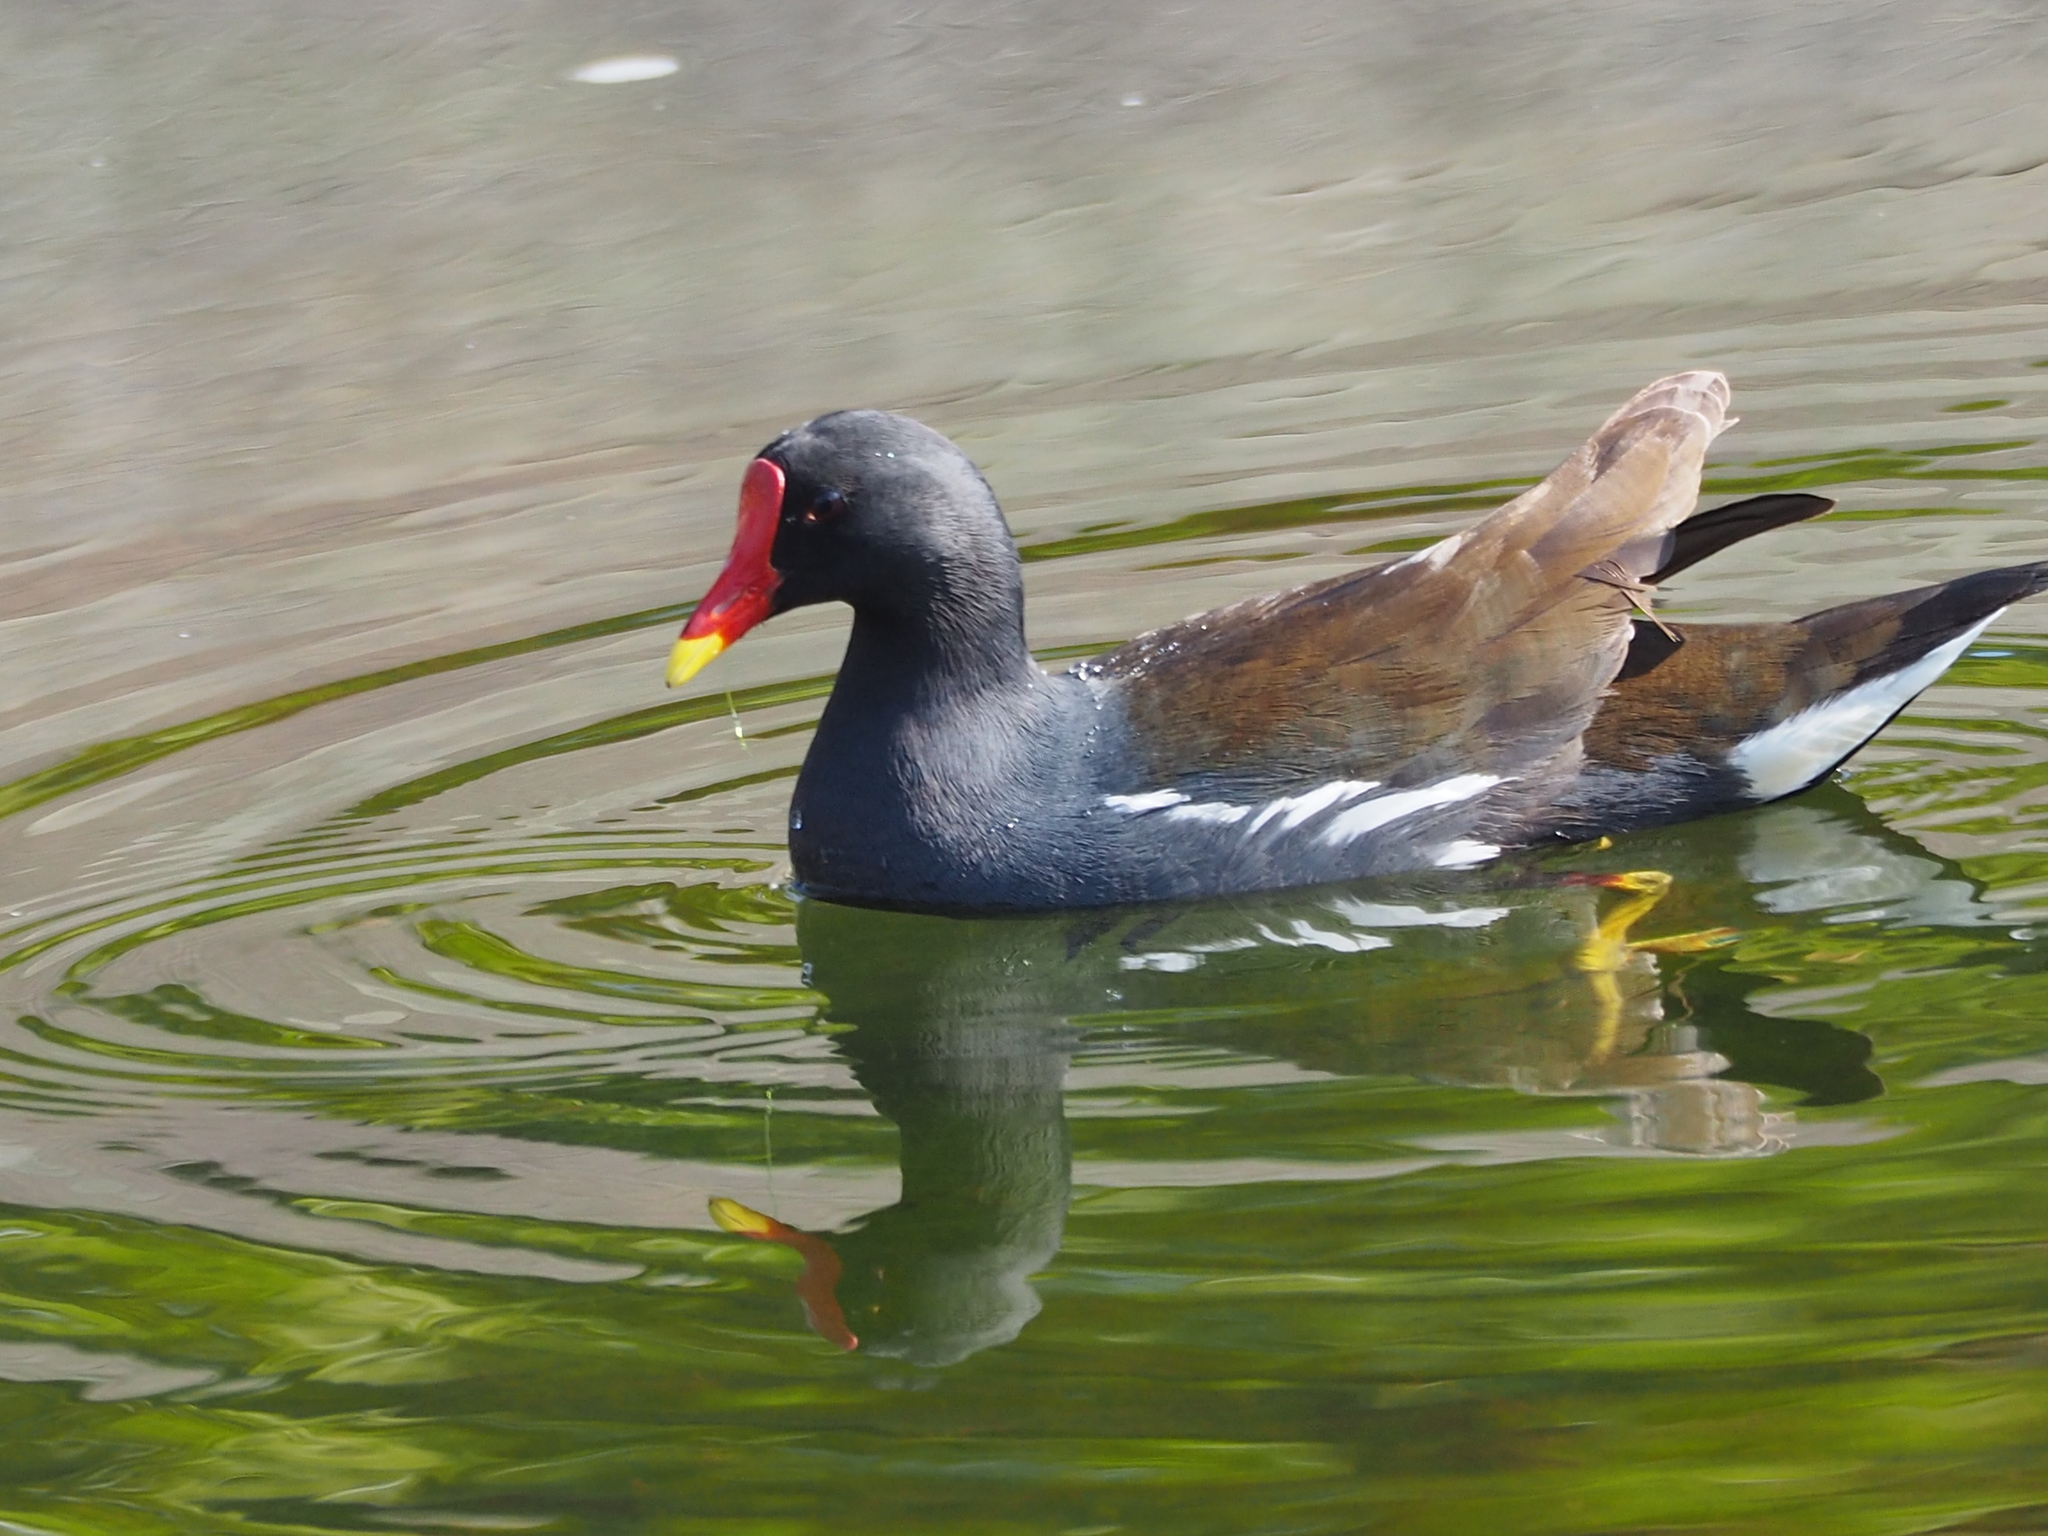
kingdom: Animalia
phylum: Chordata
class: Aves
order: Gruiformes
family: Rallidae
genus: Gallinula
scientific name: Gallinula chloropus
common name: Common moorhen
